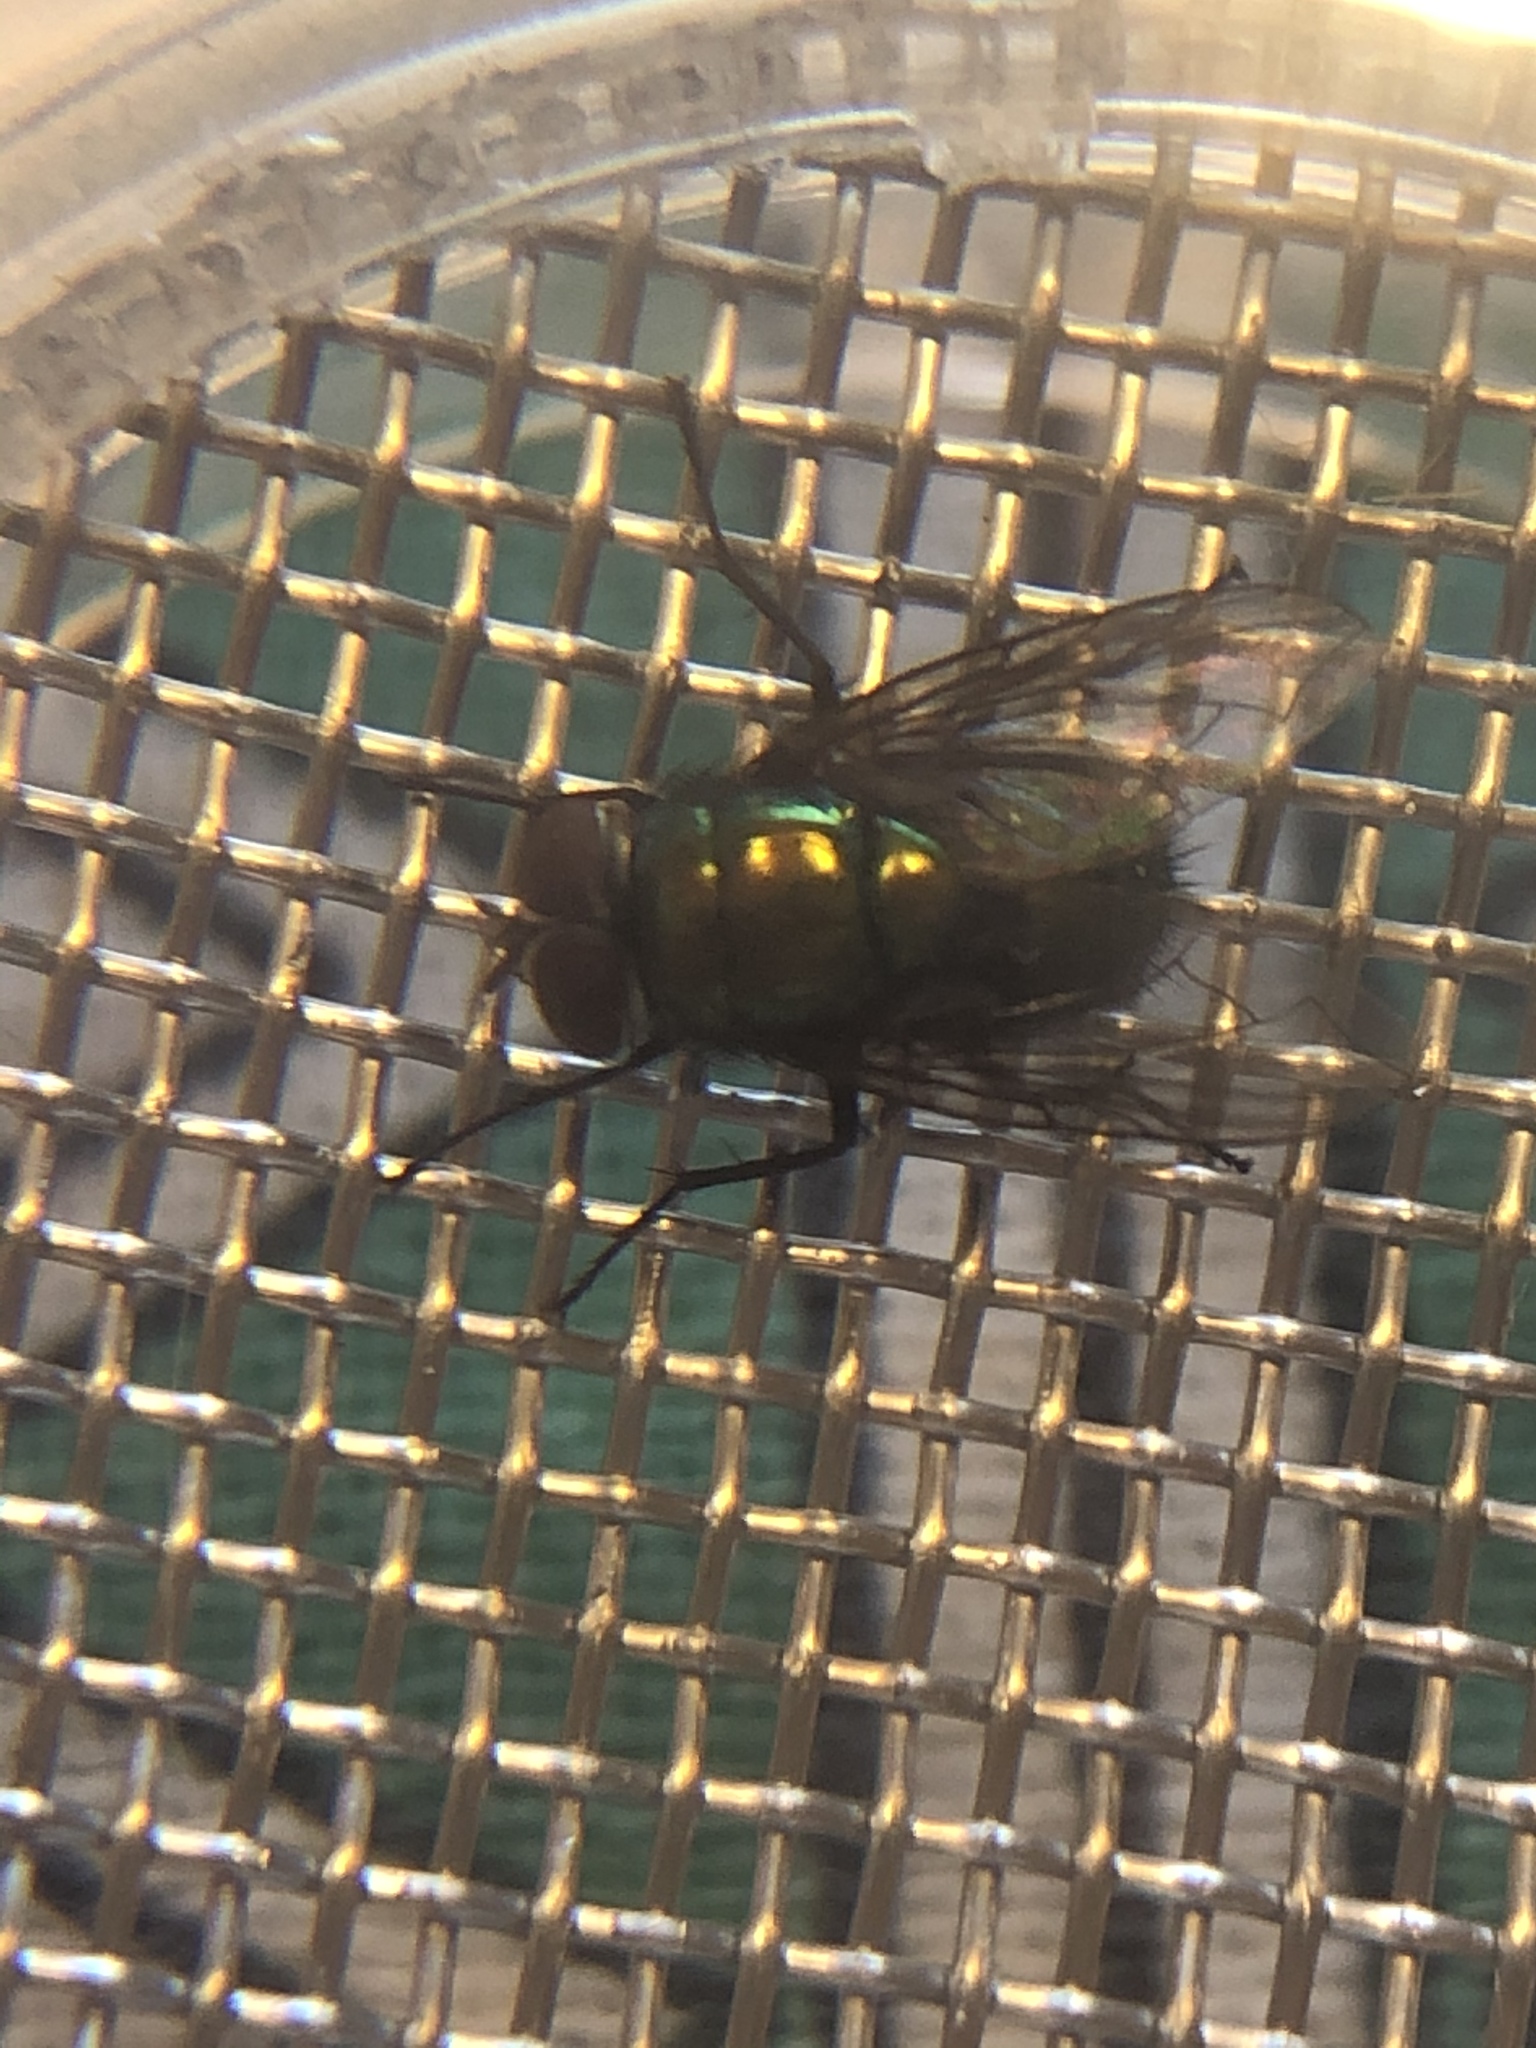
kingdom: Animalia
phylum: Arthropoda
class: Insecta
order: Diptera
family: Calliphoridae
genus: Lucilia
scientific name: Lucilia cuprina
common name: Sheep blow fly
